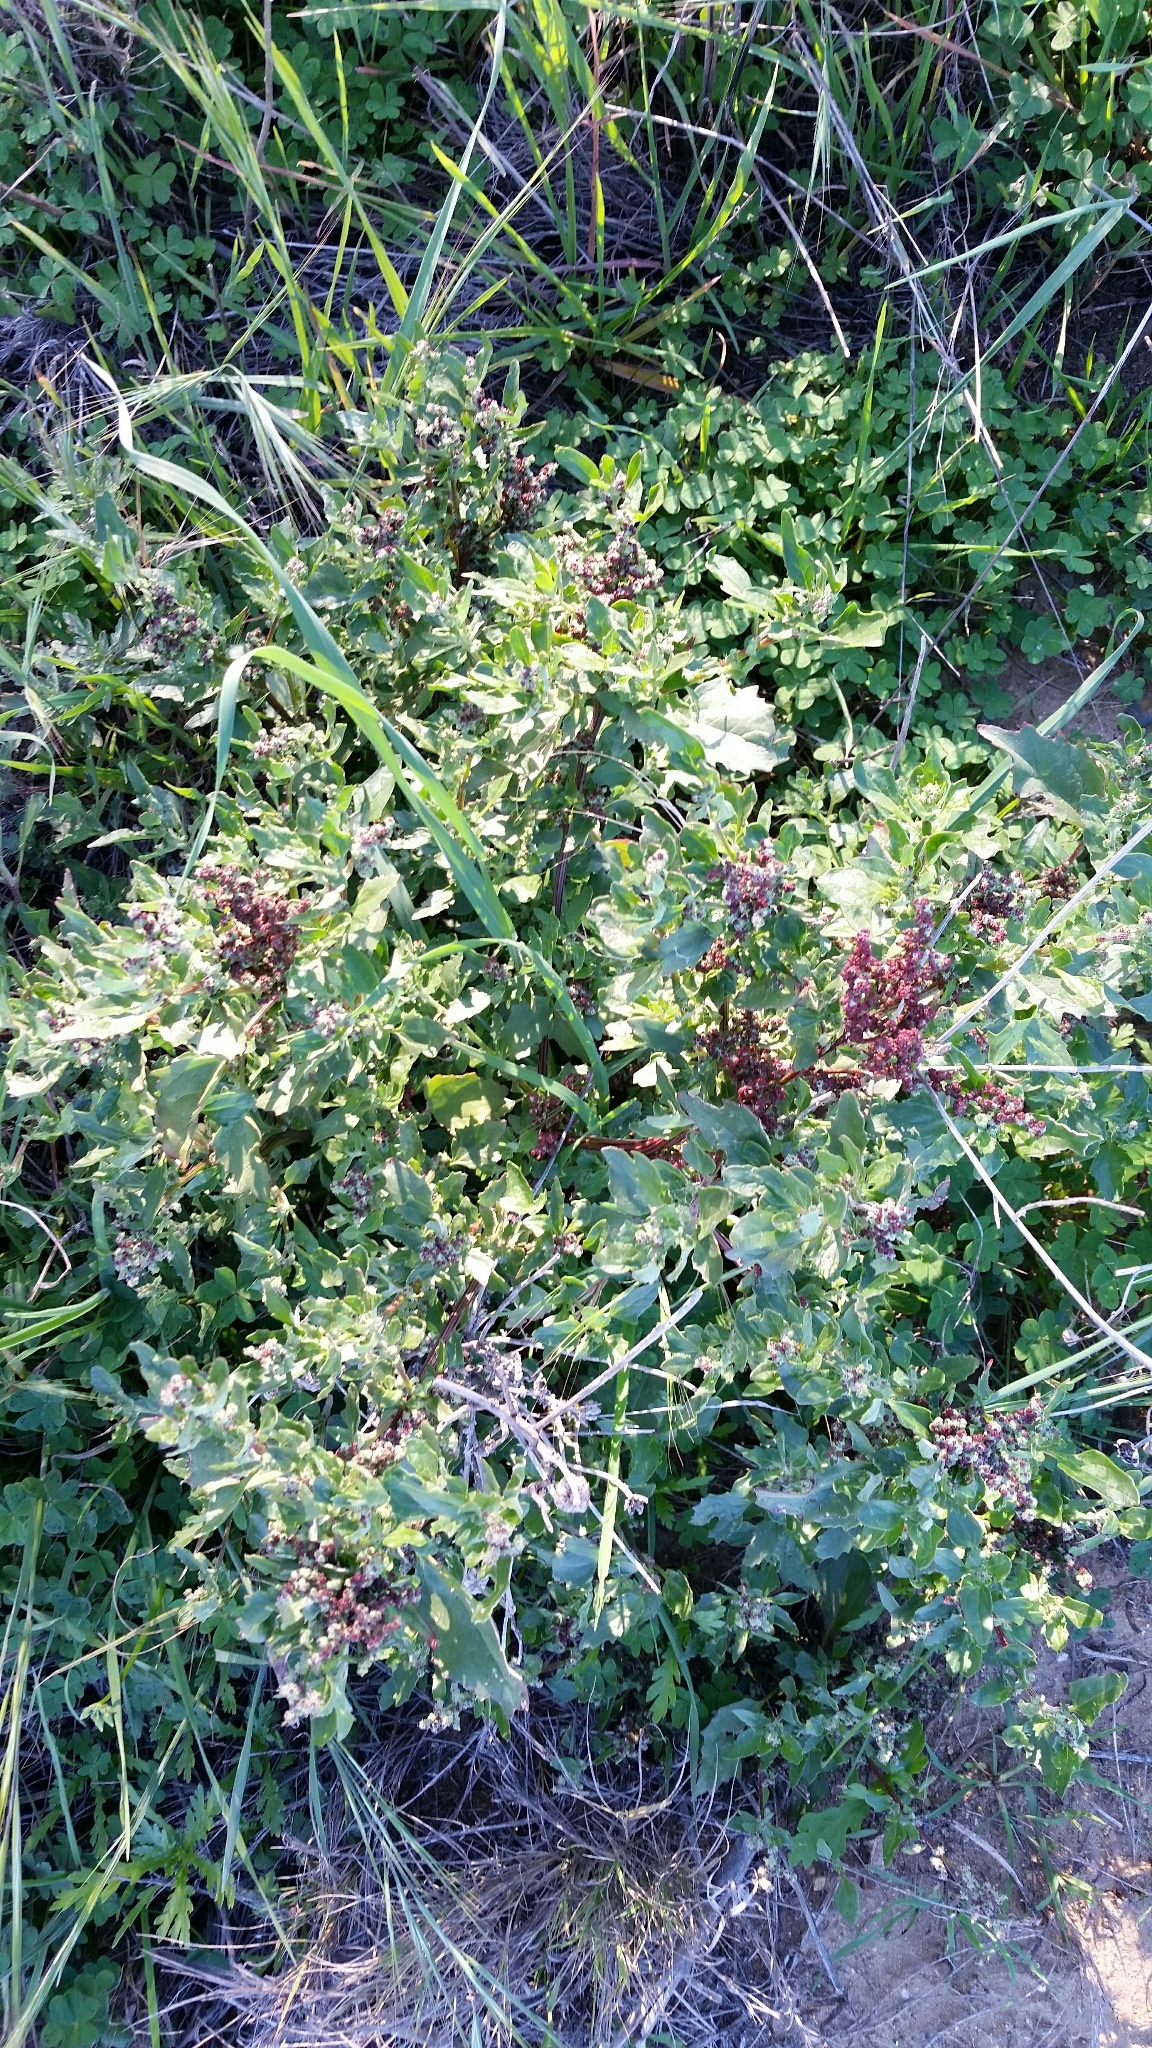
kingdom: Plantae
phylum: Tracheophyta
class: Magnoliopsida
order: Caryophyllales
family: Amaranthaceae
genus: Chenopodiastrum
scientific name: Chenopodiastrum murale
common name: Sowbane
